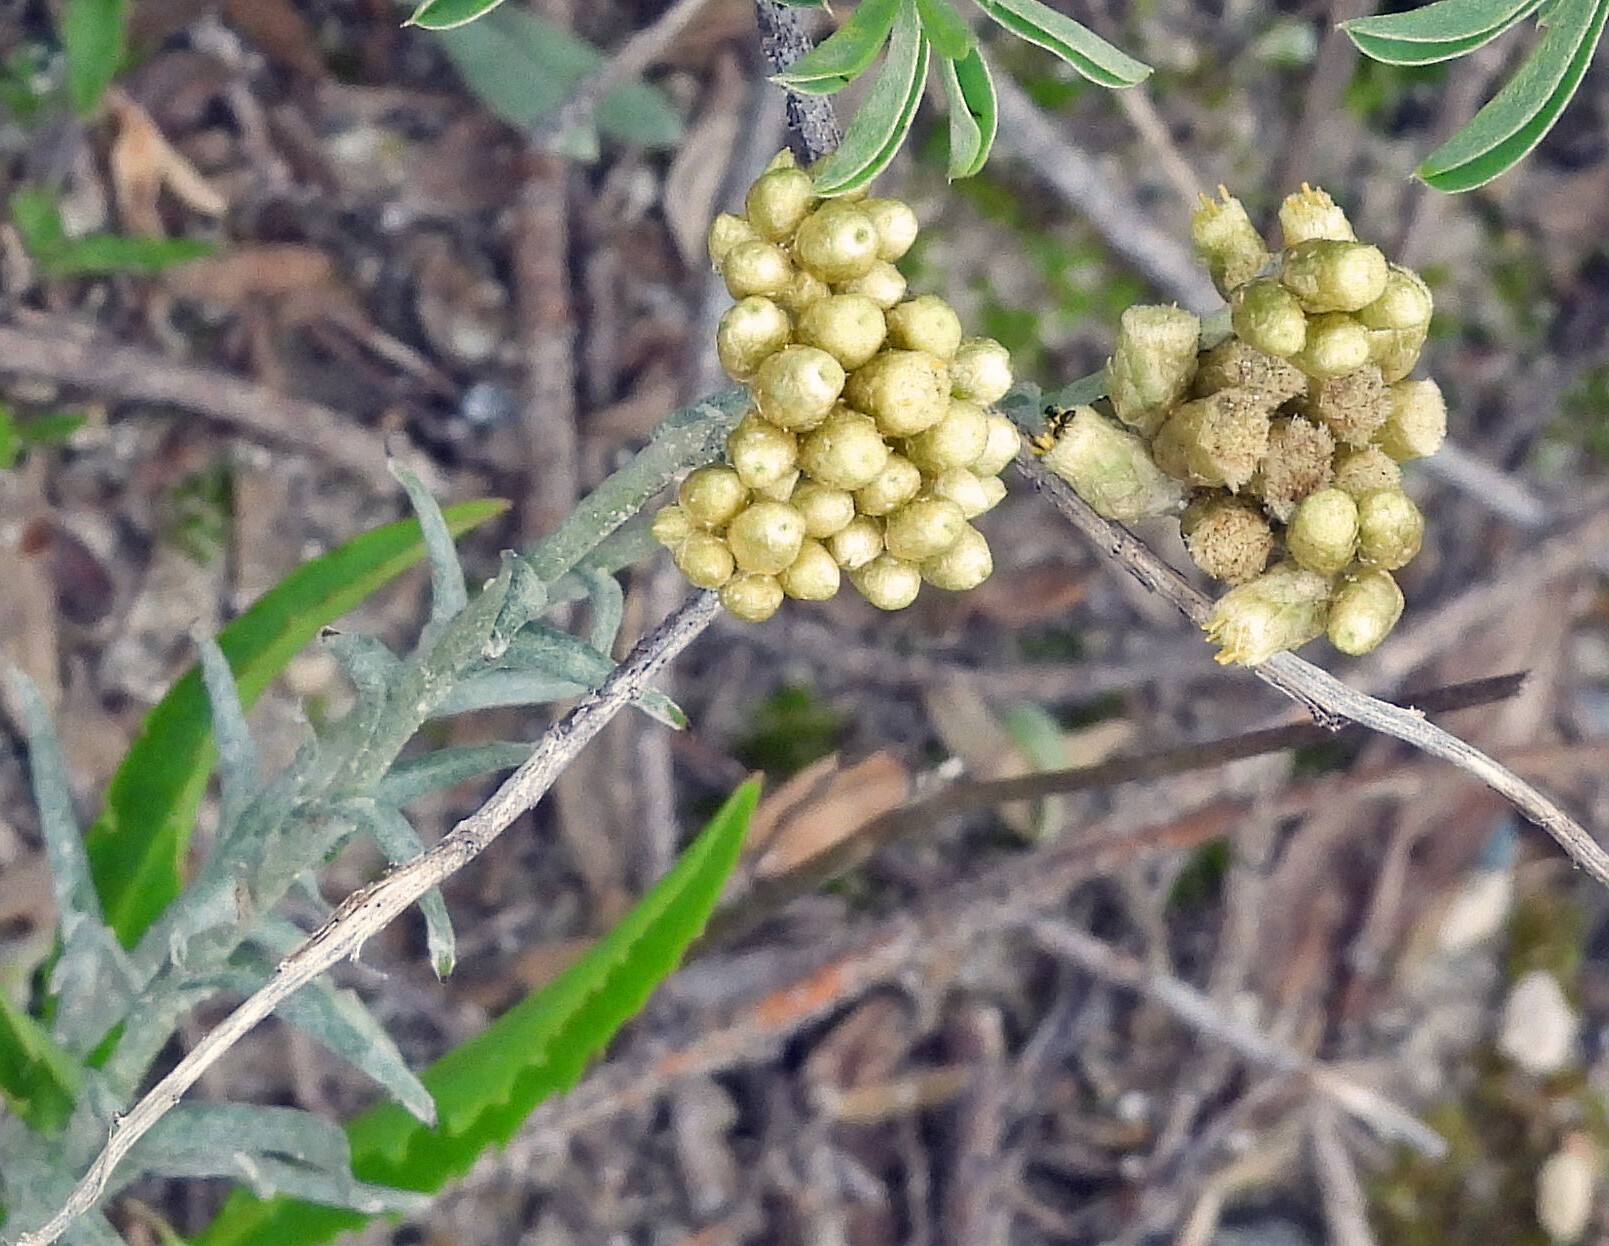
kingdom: Plantae
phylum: Tracheophyta
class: Magnoliopsida
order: Asterales
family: Asteraceae
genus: Pseudognaphalium
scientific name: Pseudognaphalium viravira
